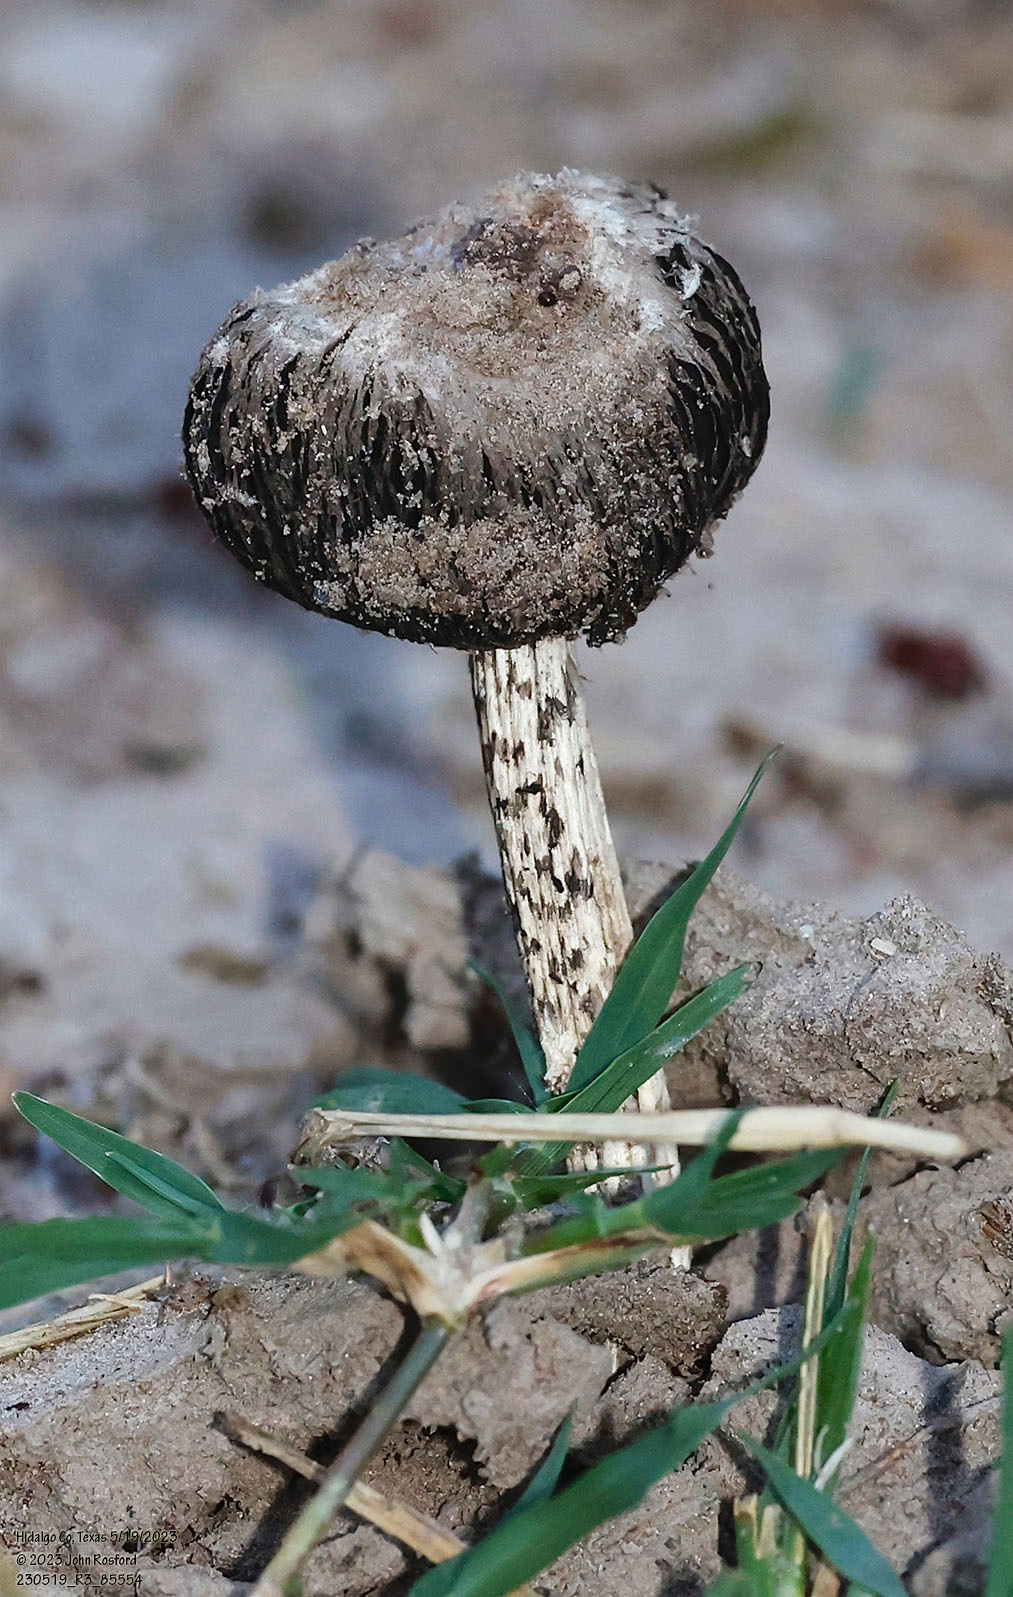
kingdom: Fungi
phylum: Basidiomycota
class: Agaricomycetes
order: Agaricales
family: Agaricaceae
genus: Montagnea
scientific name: Montagnea arenaria
